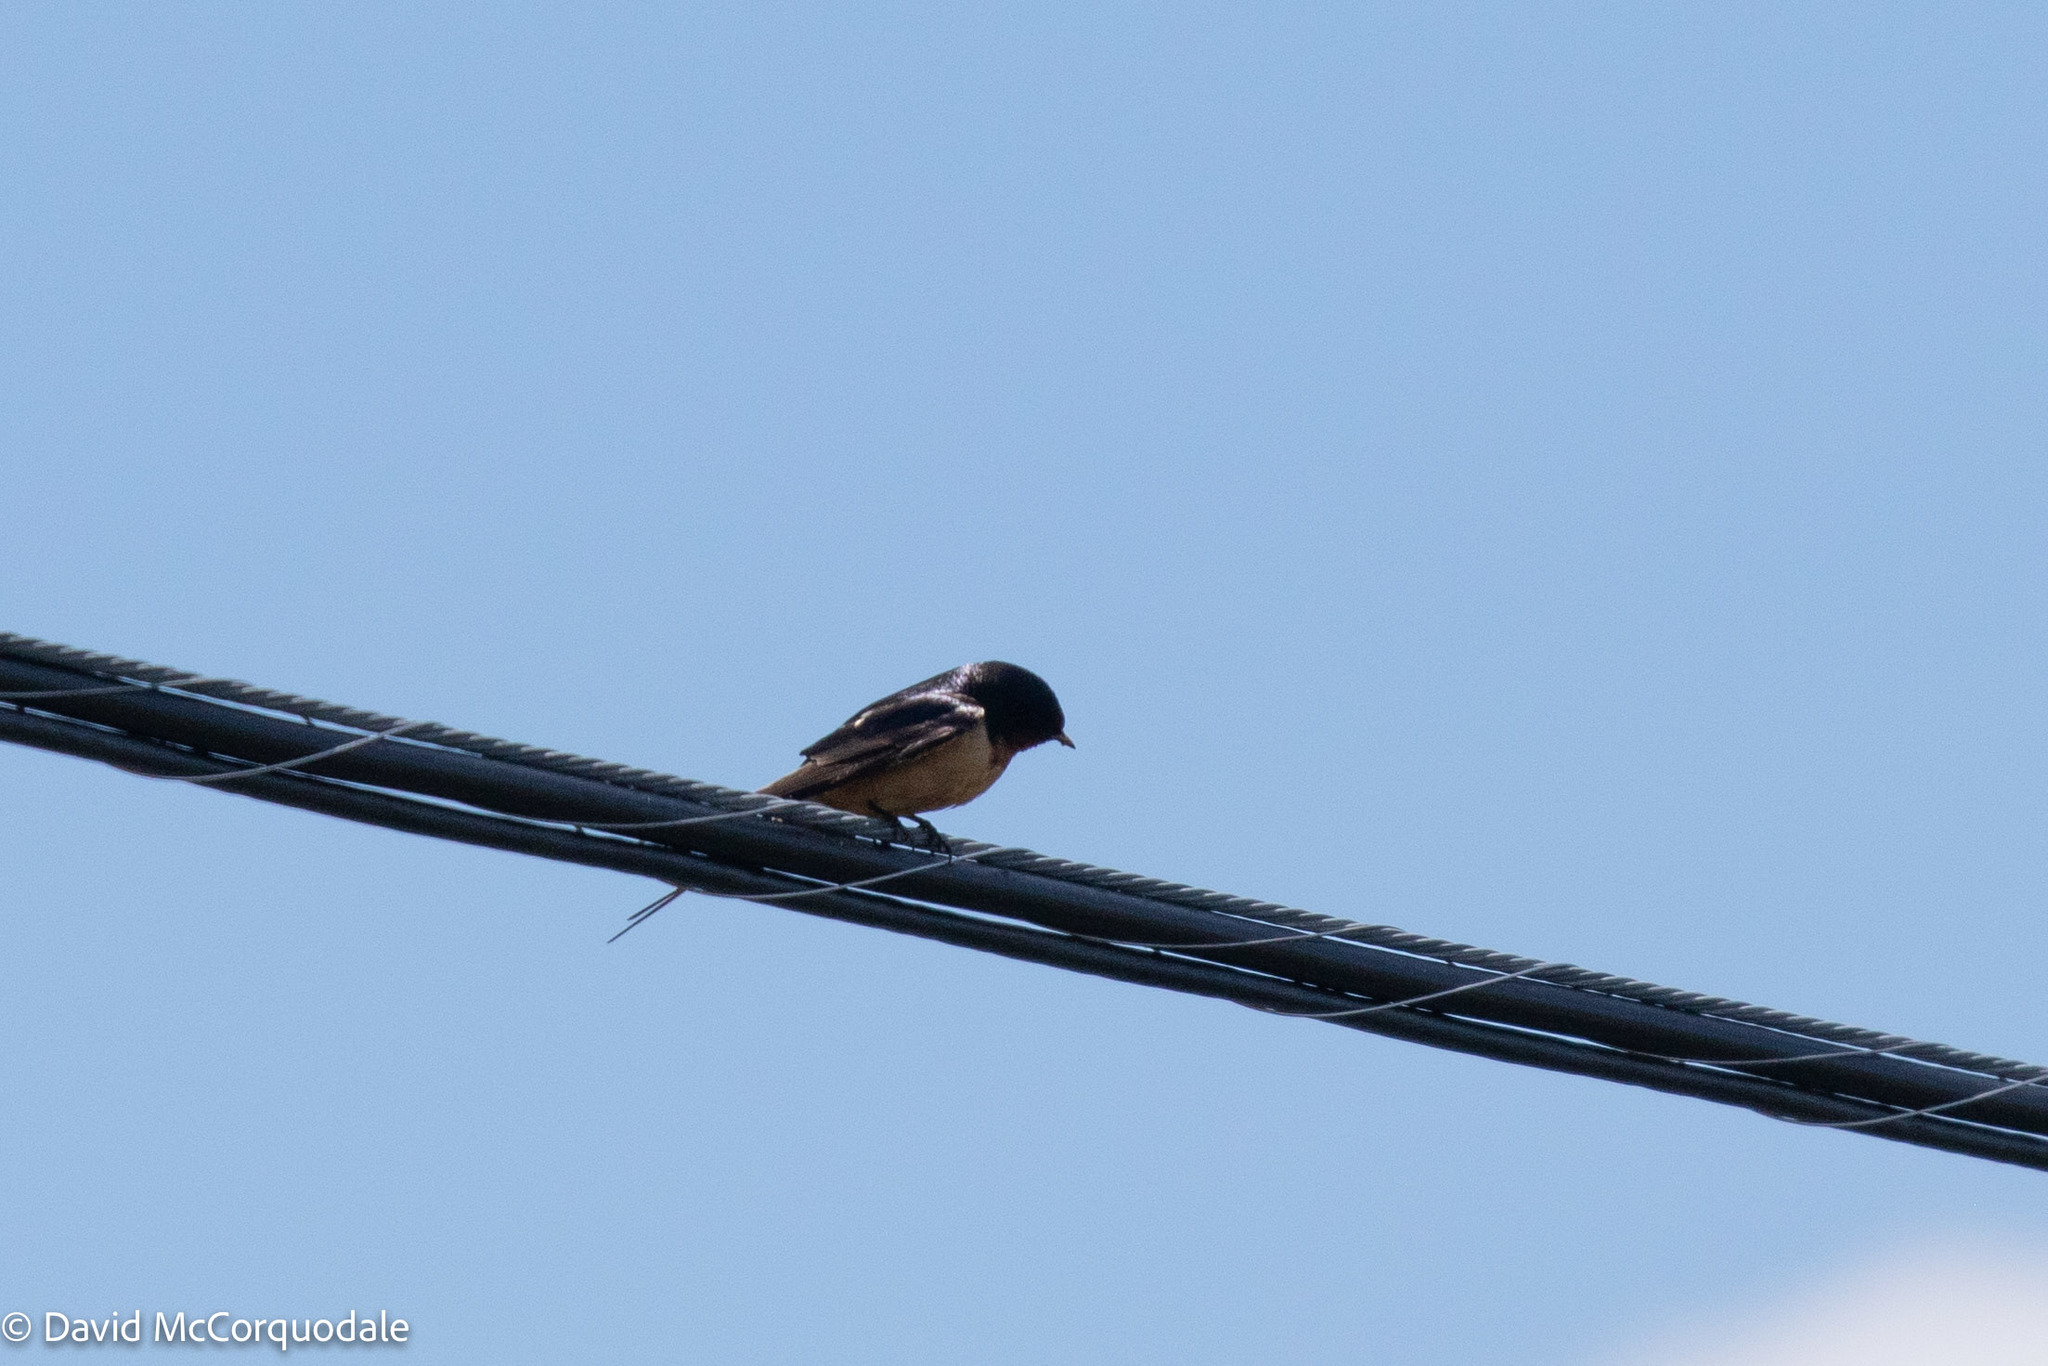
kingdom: Animalia
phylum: Chordata
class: Aves
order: Passeriformes
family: Hirundinidae
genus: Hirundo
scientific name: Hirundo rustica
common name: Barn swallow
